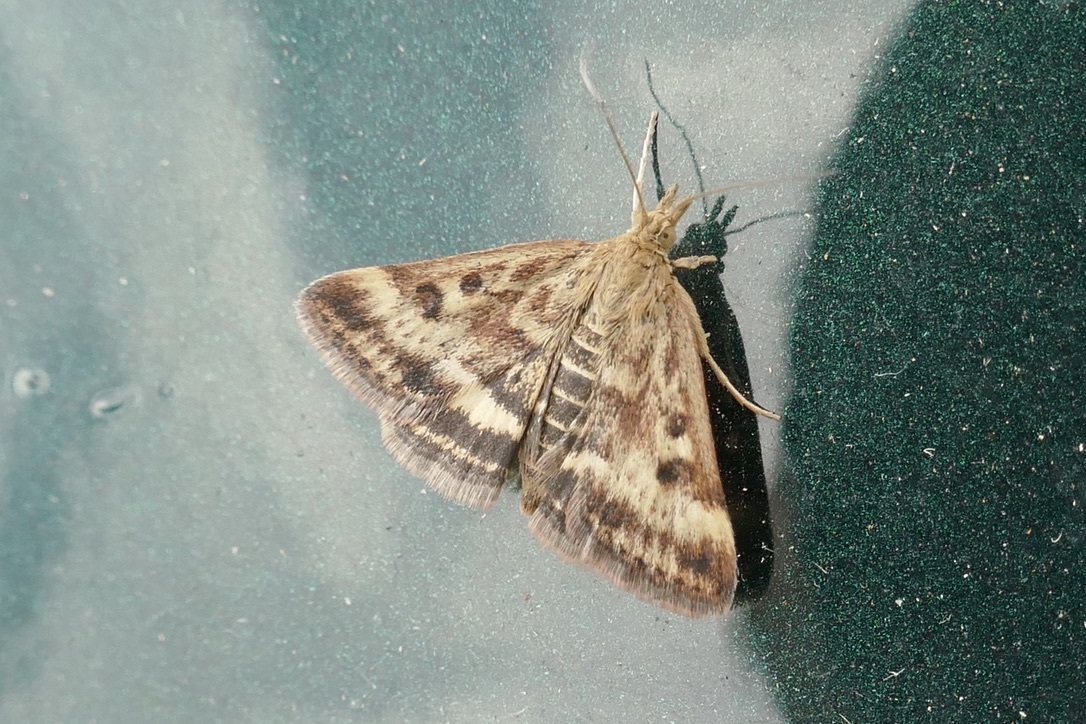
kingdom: Animalia
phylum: Arthropoda
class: Insecta
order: Lepidoptera
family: Crambidae
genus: Pyrausta
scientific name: Pyrausta despicata
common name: Straw-barred pearl
